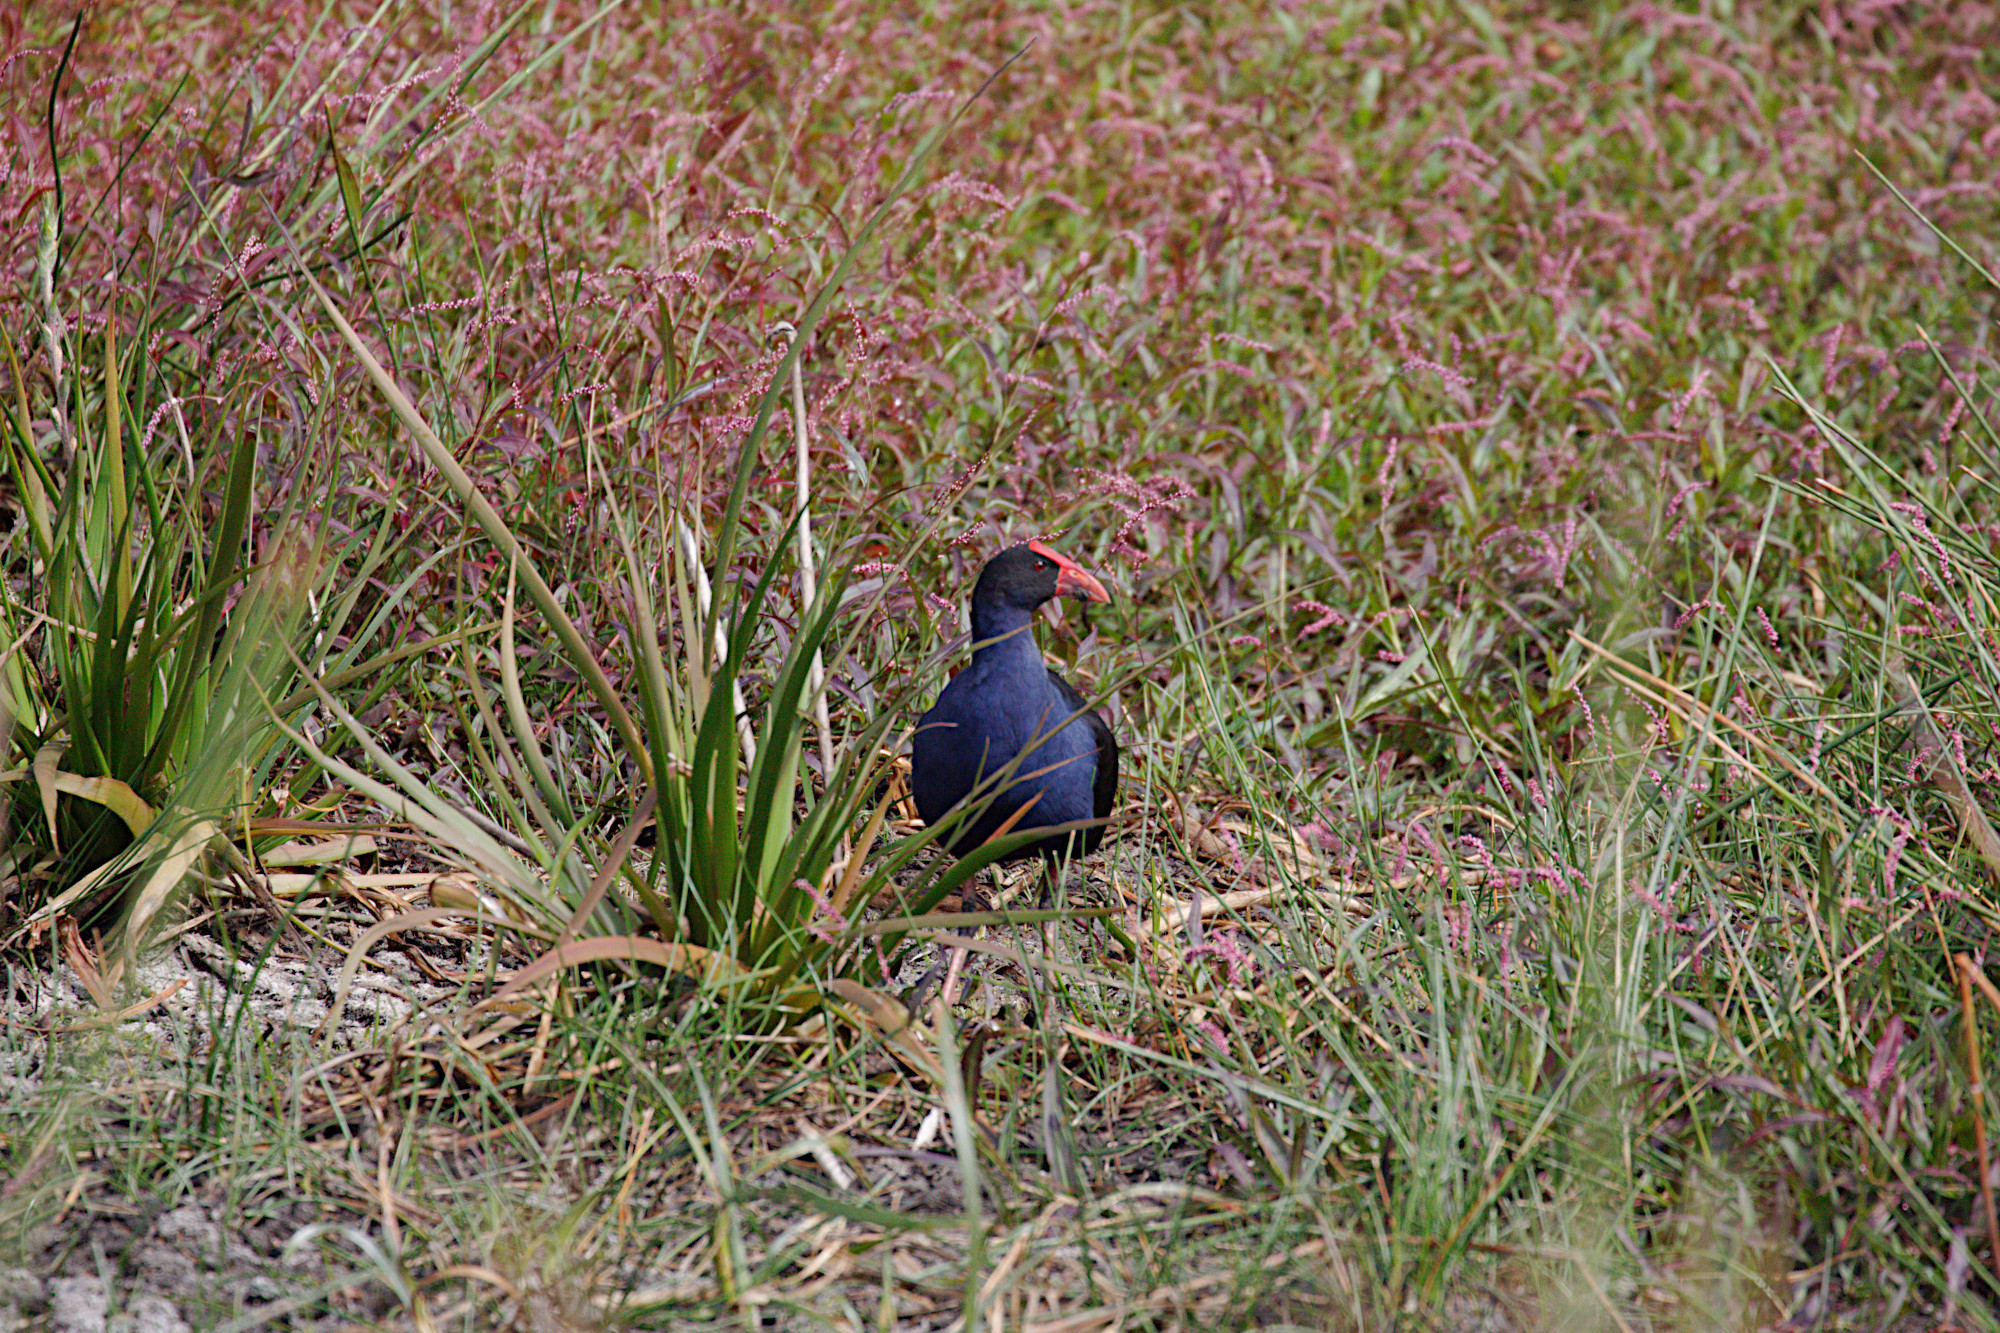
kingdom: Animalia
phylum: Chordata
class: Aves
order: Gruiformes
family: Rallidae
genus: Porphyrio
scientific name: Porphyrio melanotus
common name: Australasian swamphen
